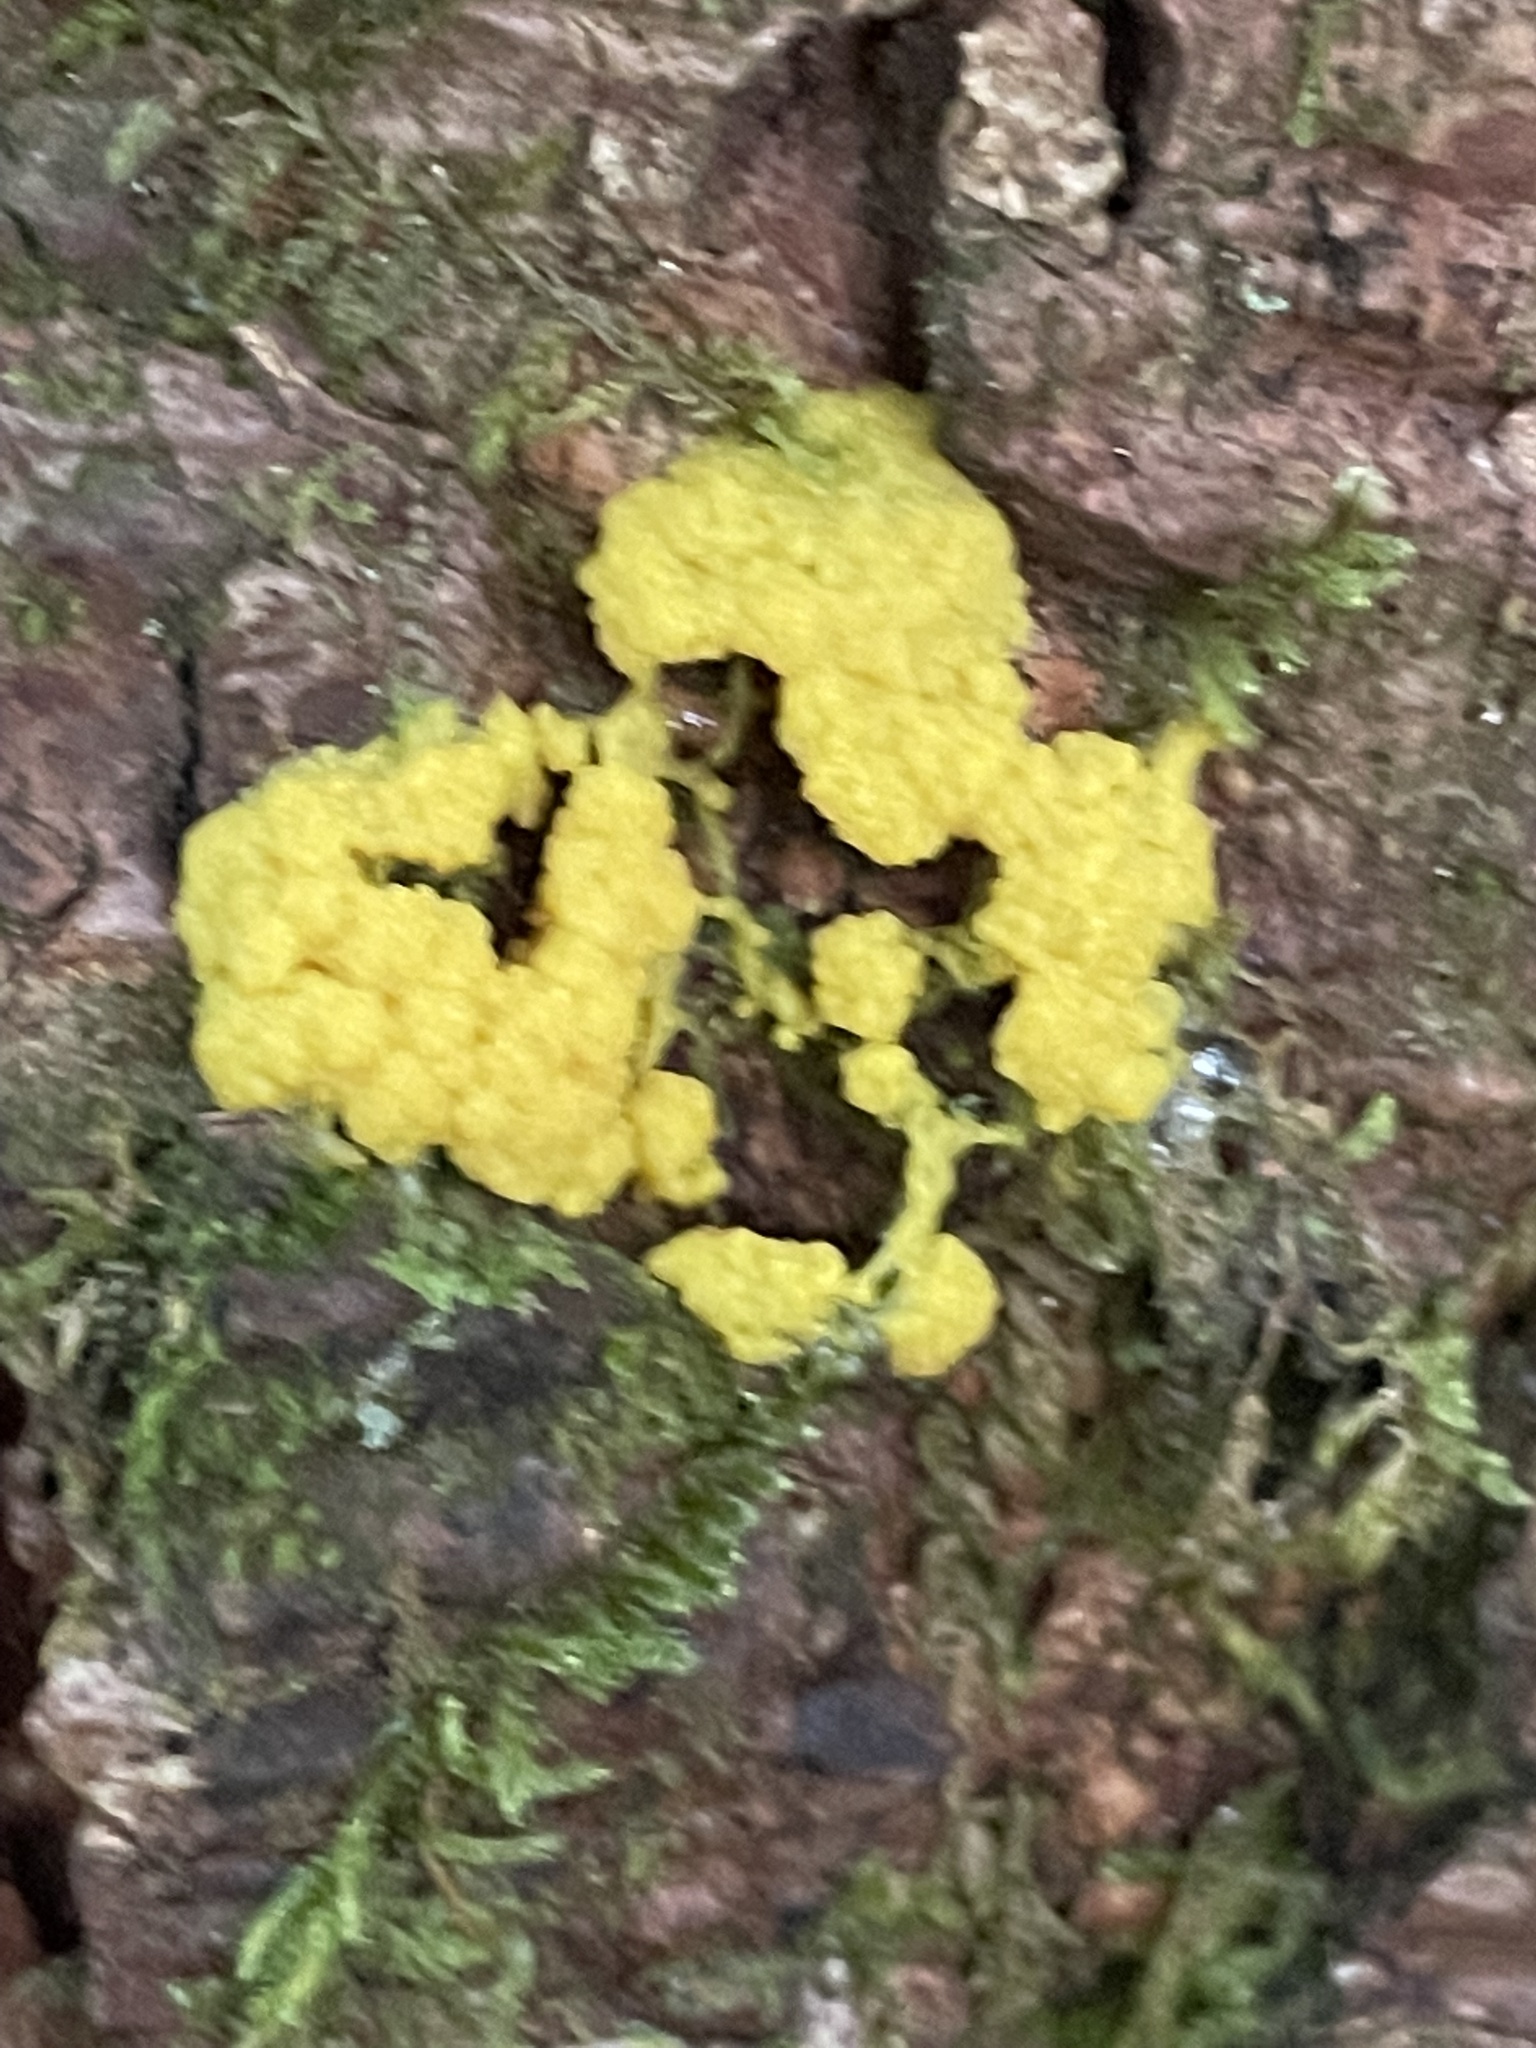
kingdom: Protozoa
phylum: Mycetozoa
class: Myxomycetes
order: Physarales
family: Physaraceae
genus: Fuligo
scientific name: Fuligo septica
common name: Dog vomit slime mold
